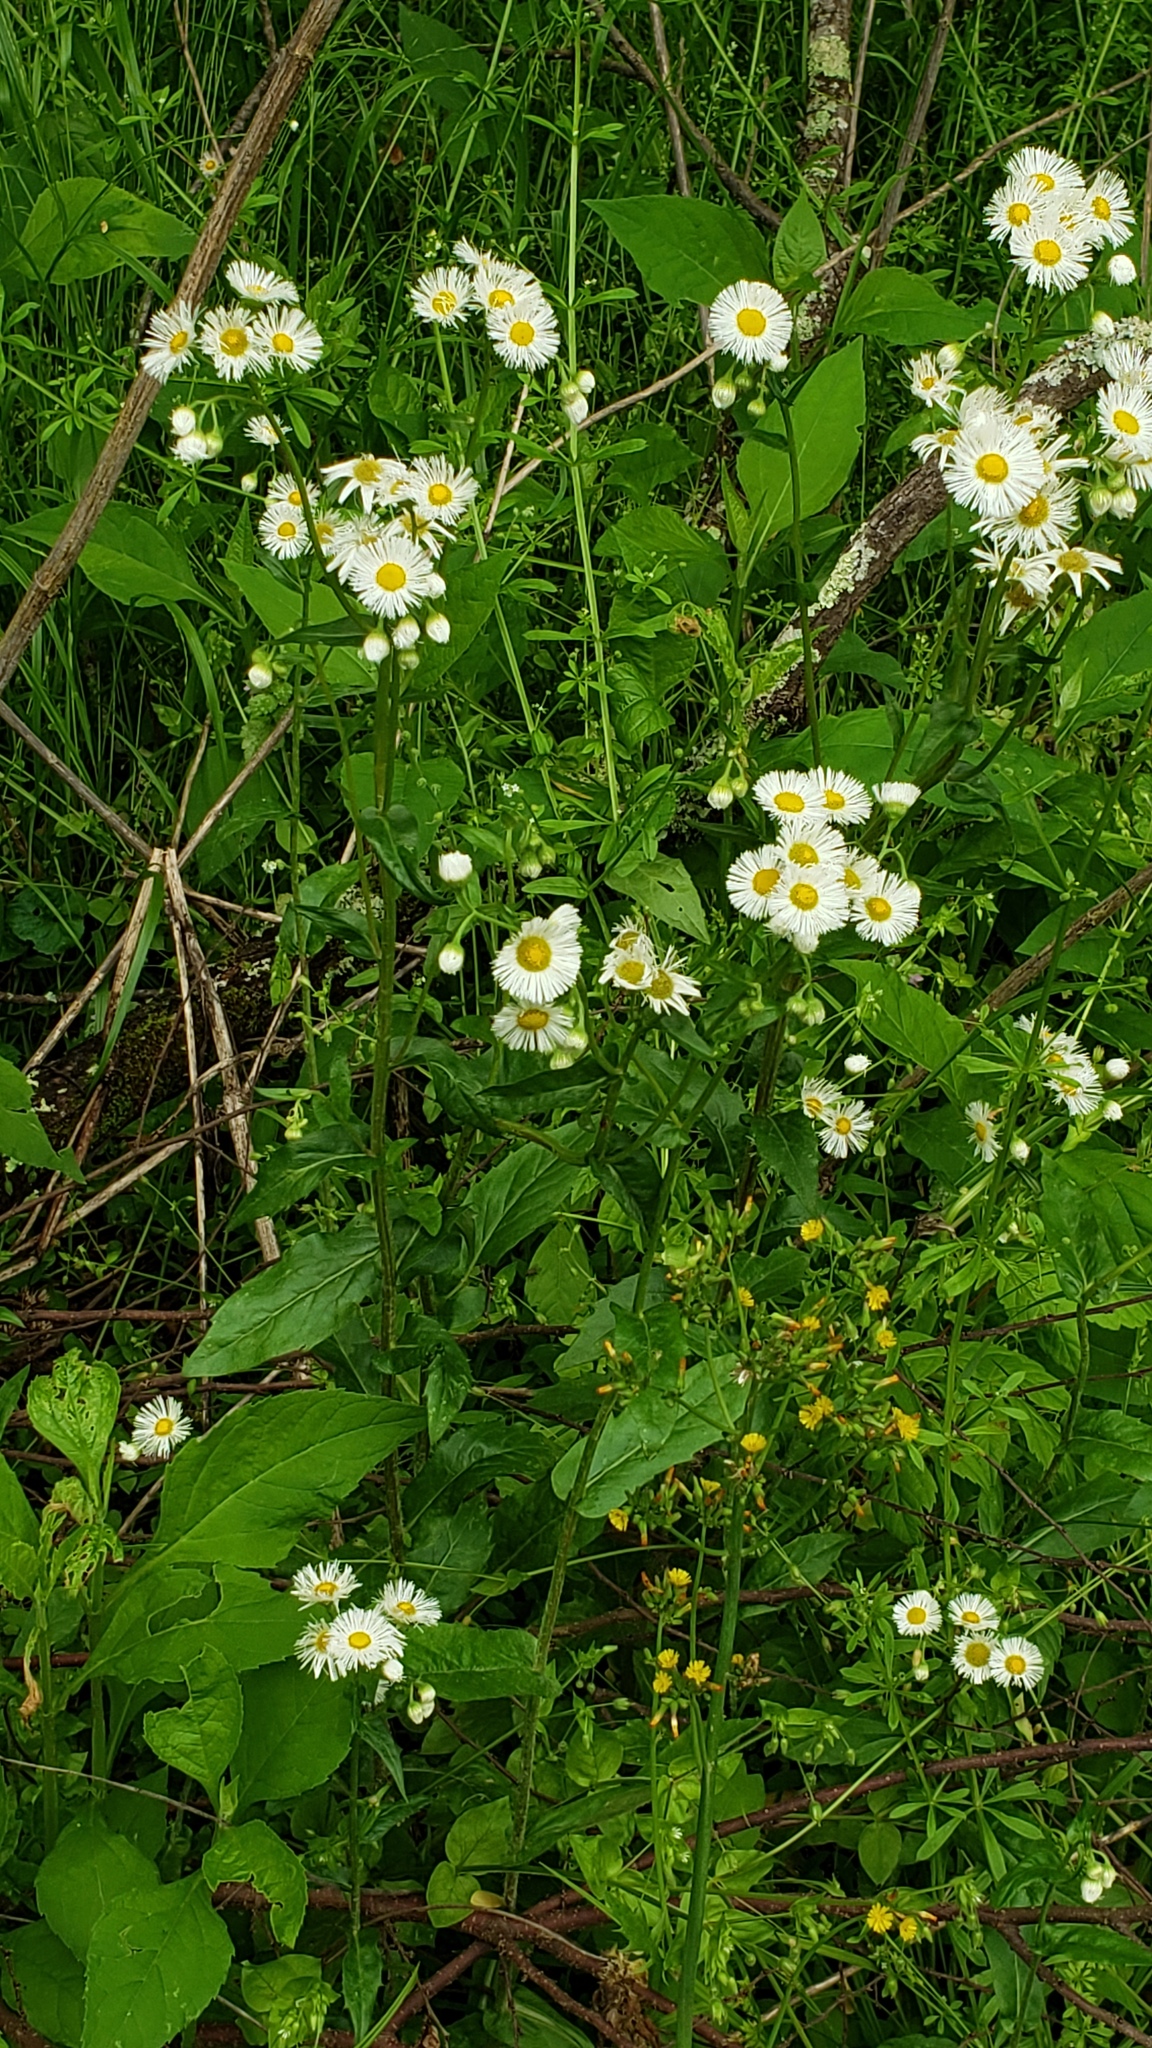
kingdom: Plantae
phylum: Tracheophyta
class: Magnoliopsida
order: Asterales
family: Asteraceae
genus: Erigeron
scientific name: Erigeron philadelphicus
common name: Robin's-plantain
